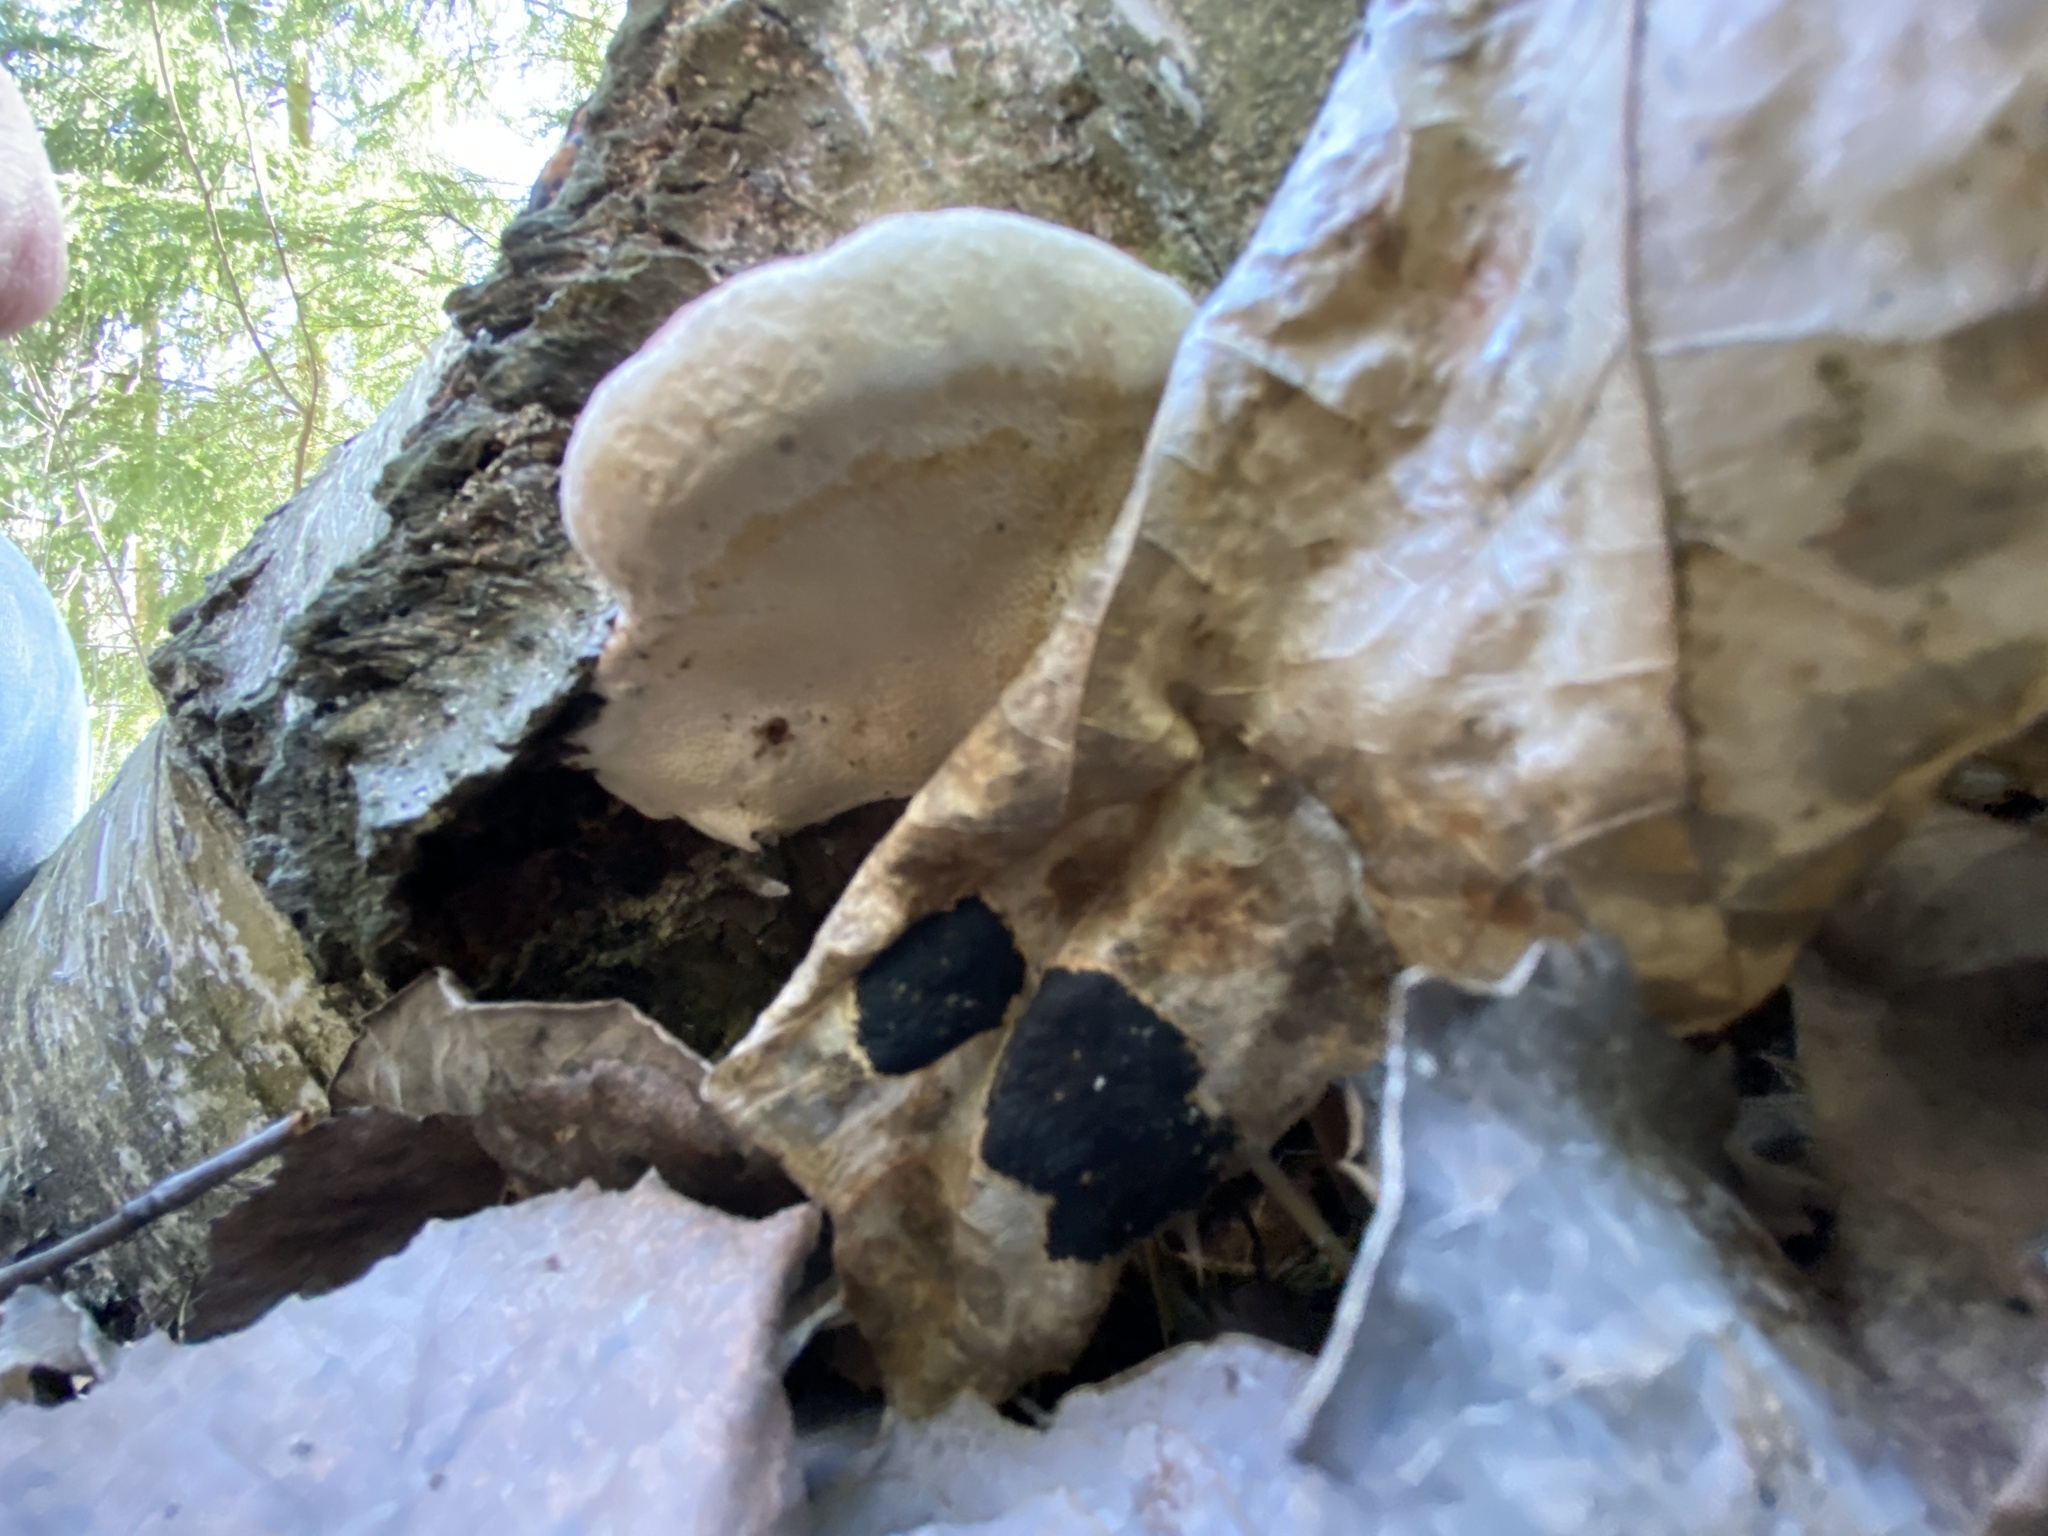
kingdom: Fungi
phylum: Basidiomycota
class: Agaricomycetes
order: Polyporales
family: Fomitopsidaceae
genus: Fomitopsis
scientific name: Fomitopsis pinicola
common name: Red-belted bracket
